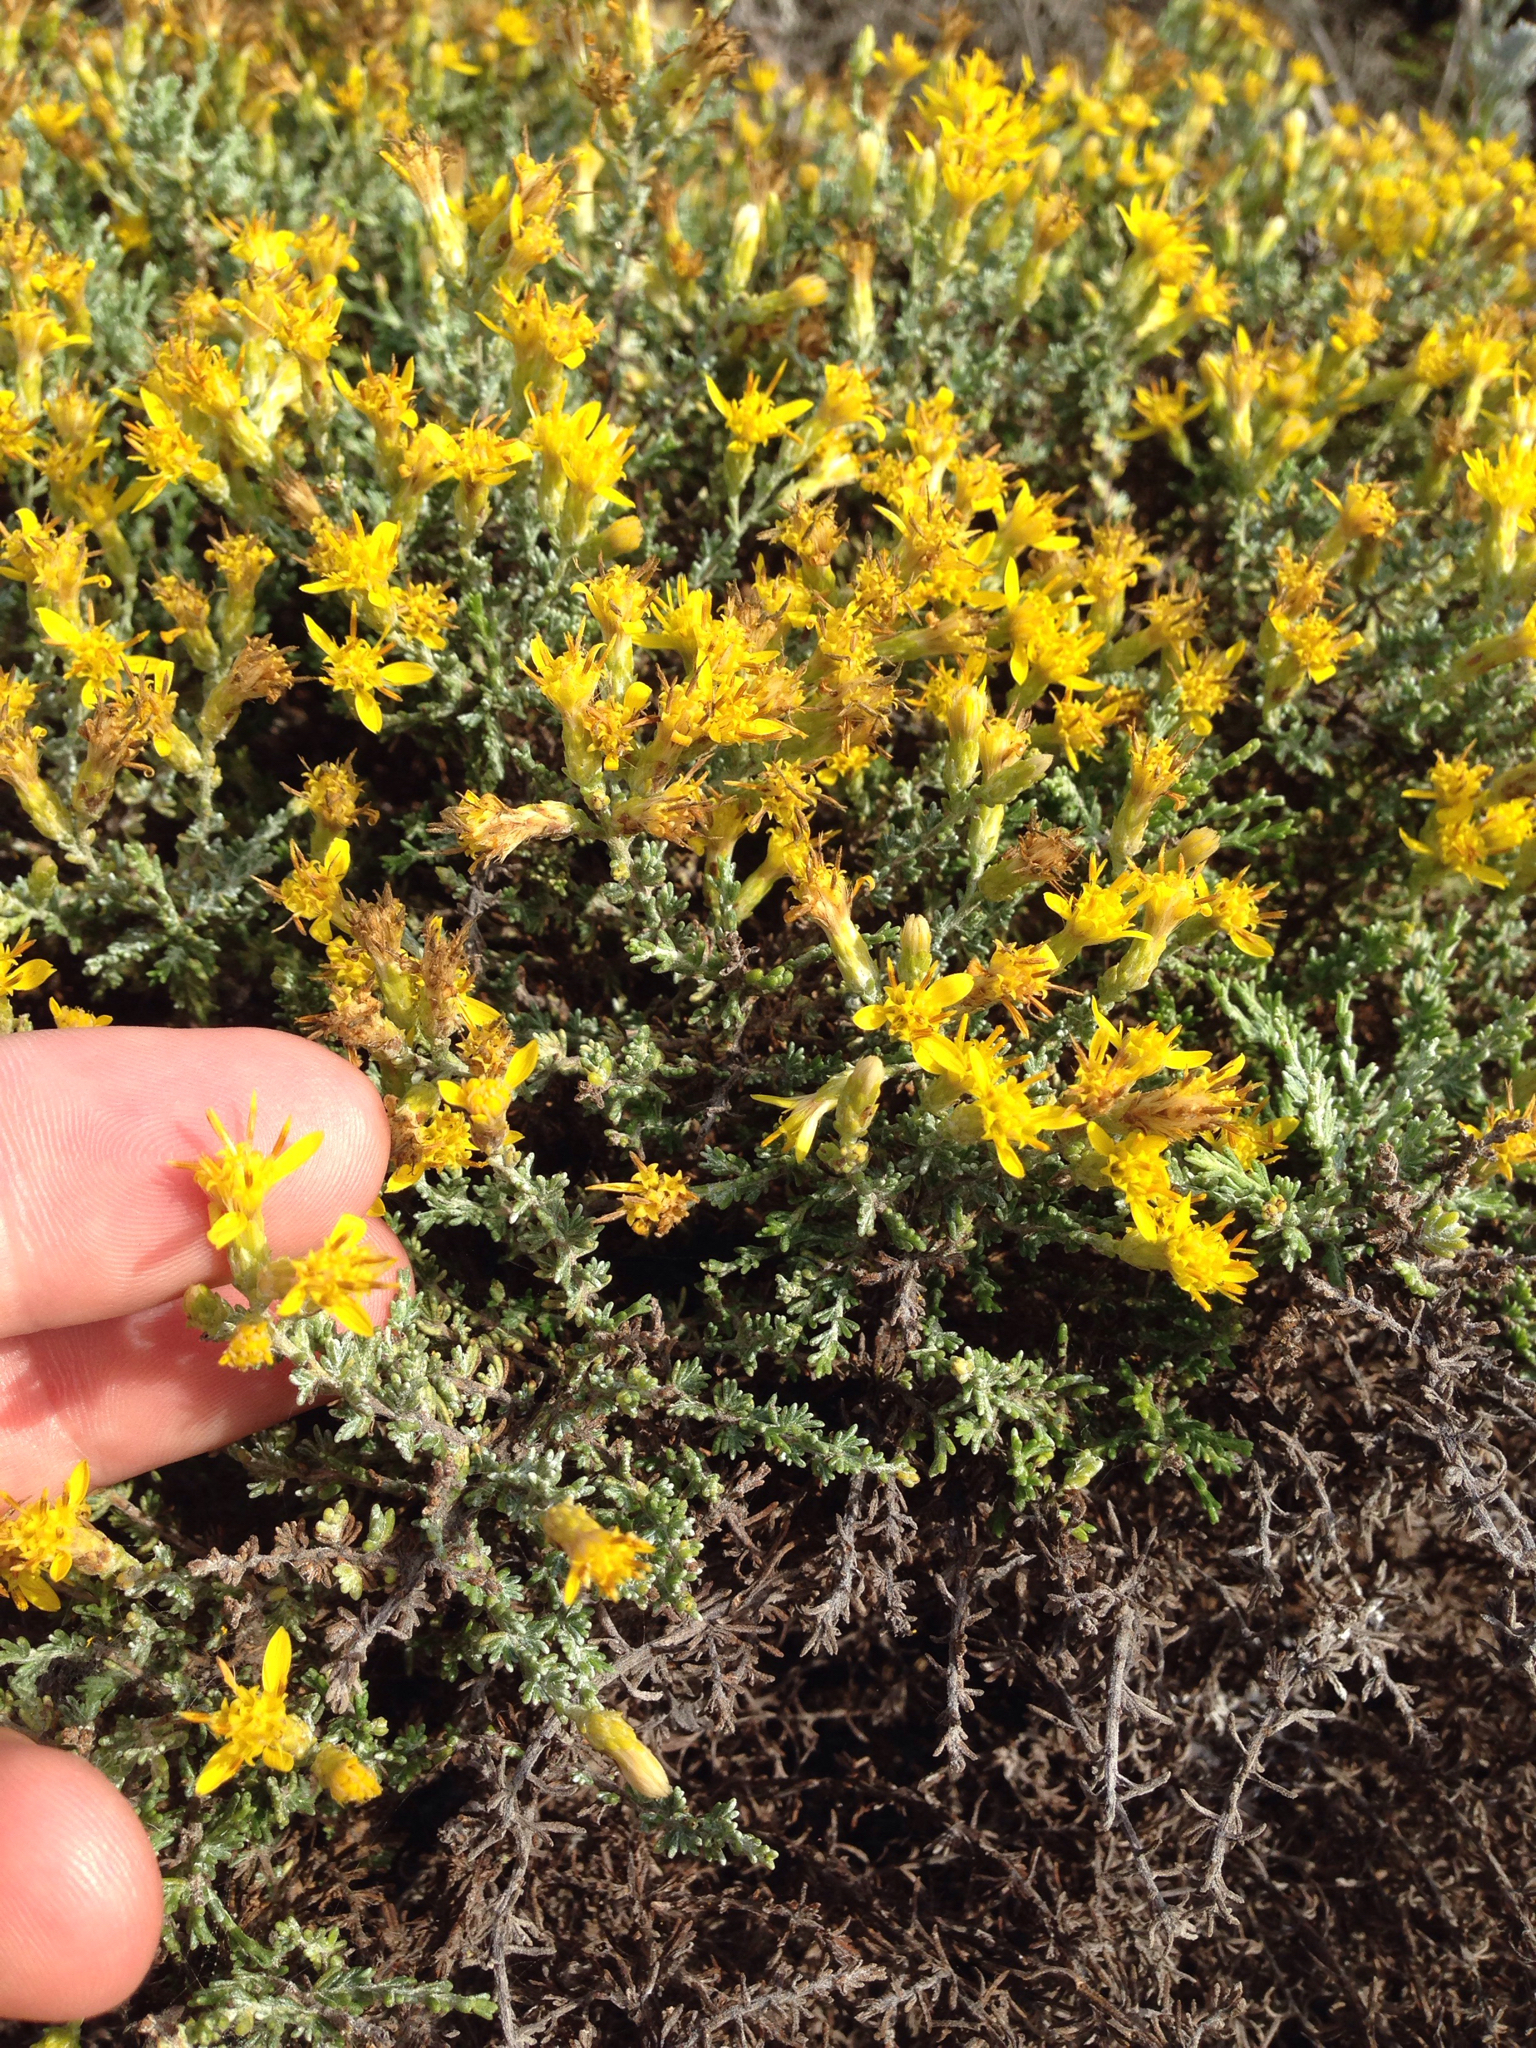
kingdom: Plantae
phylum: Tracheophyta
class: Magnoliopsida
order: Asterales
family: Asteraceae
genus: Ericameria
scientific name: Ericameria ericoides
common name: California goldenbush
